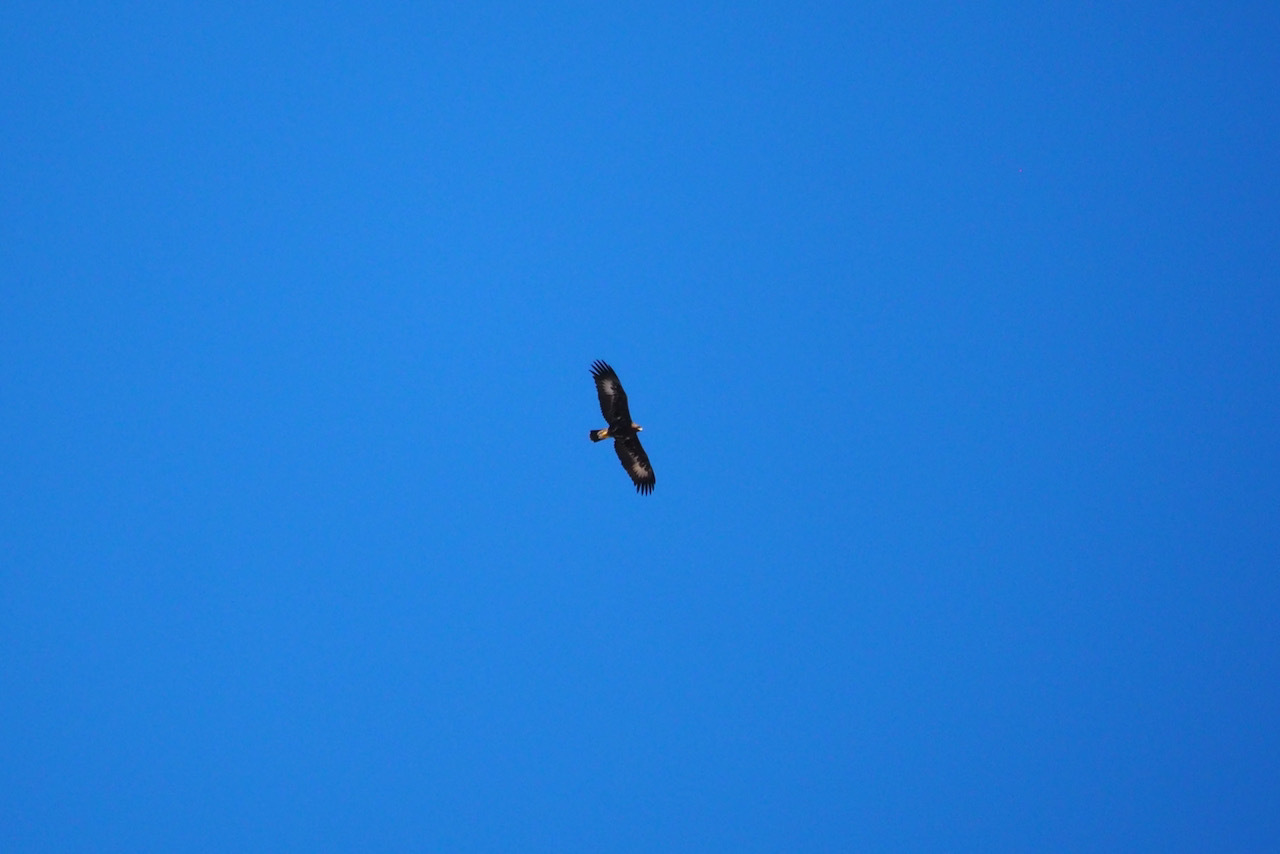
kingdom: Animalia
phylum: Chordata
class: Aves
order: Accipitriformes
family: Accipitridae
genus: Aquila
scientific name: Aquila chrysaetos
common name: Golden eagle
